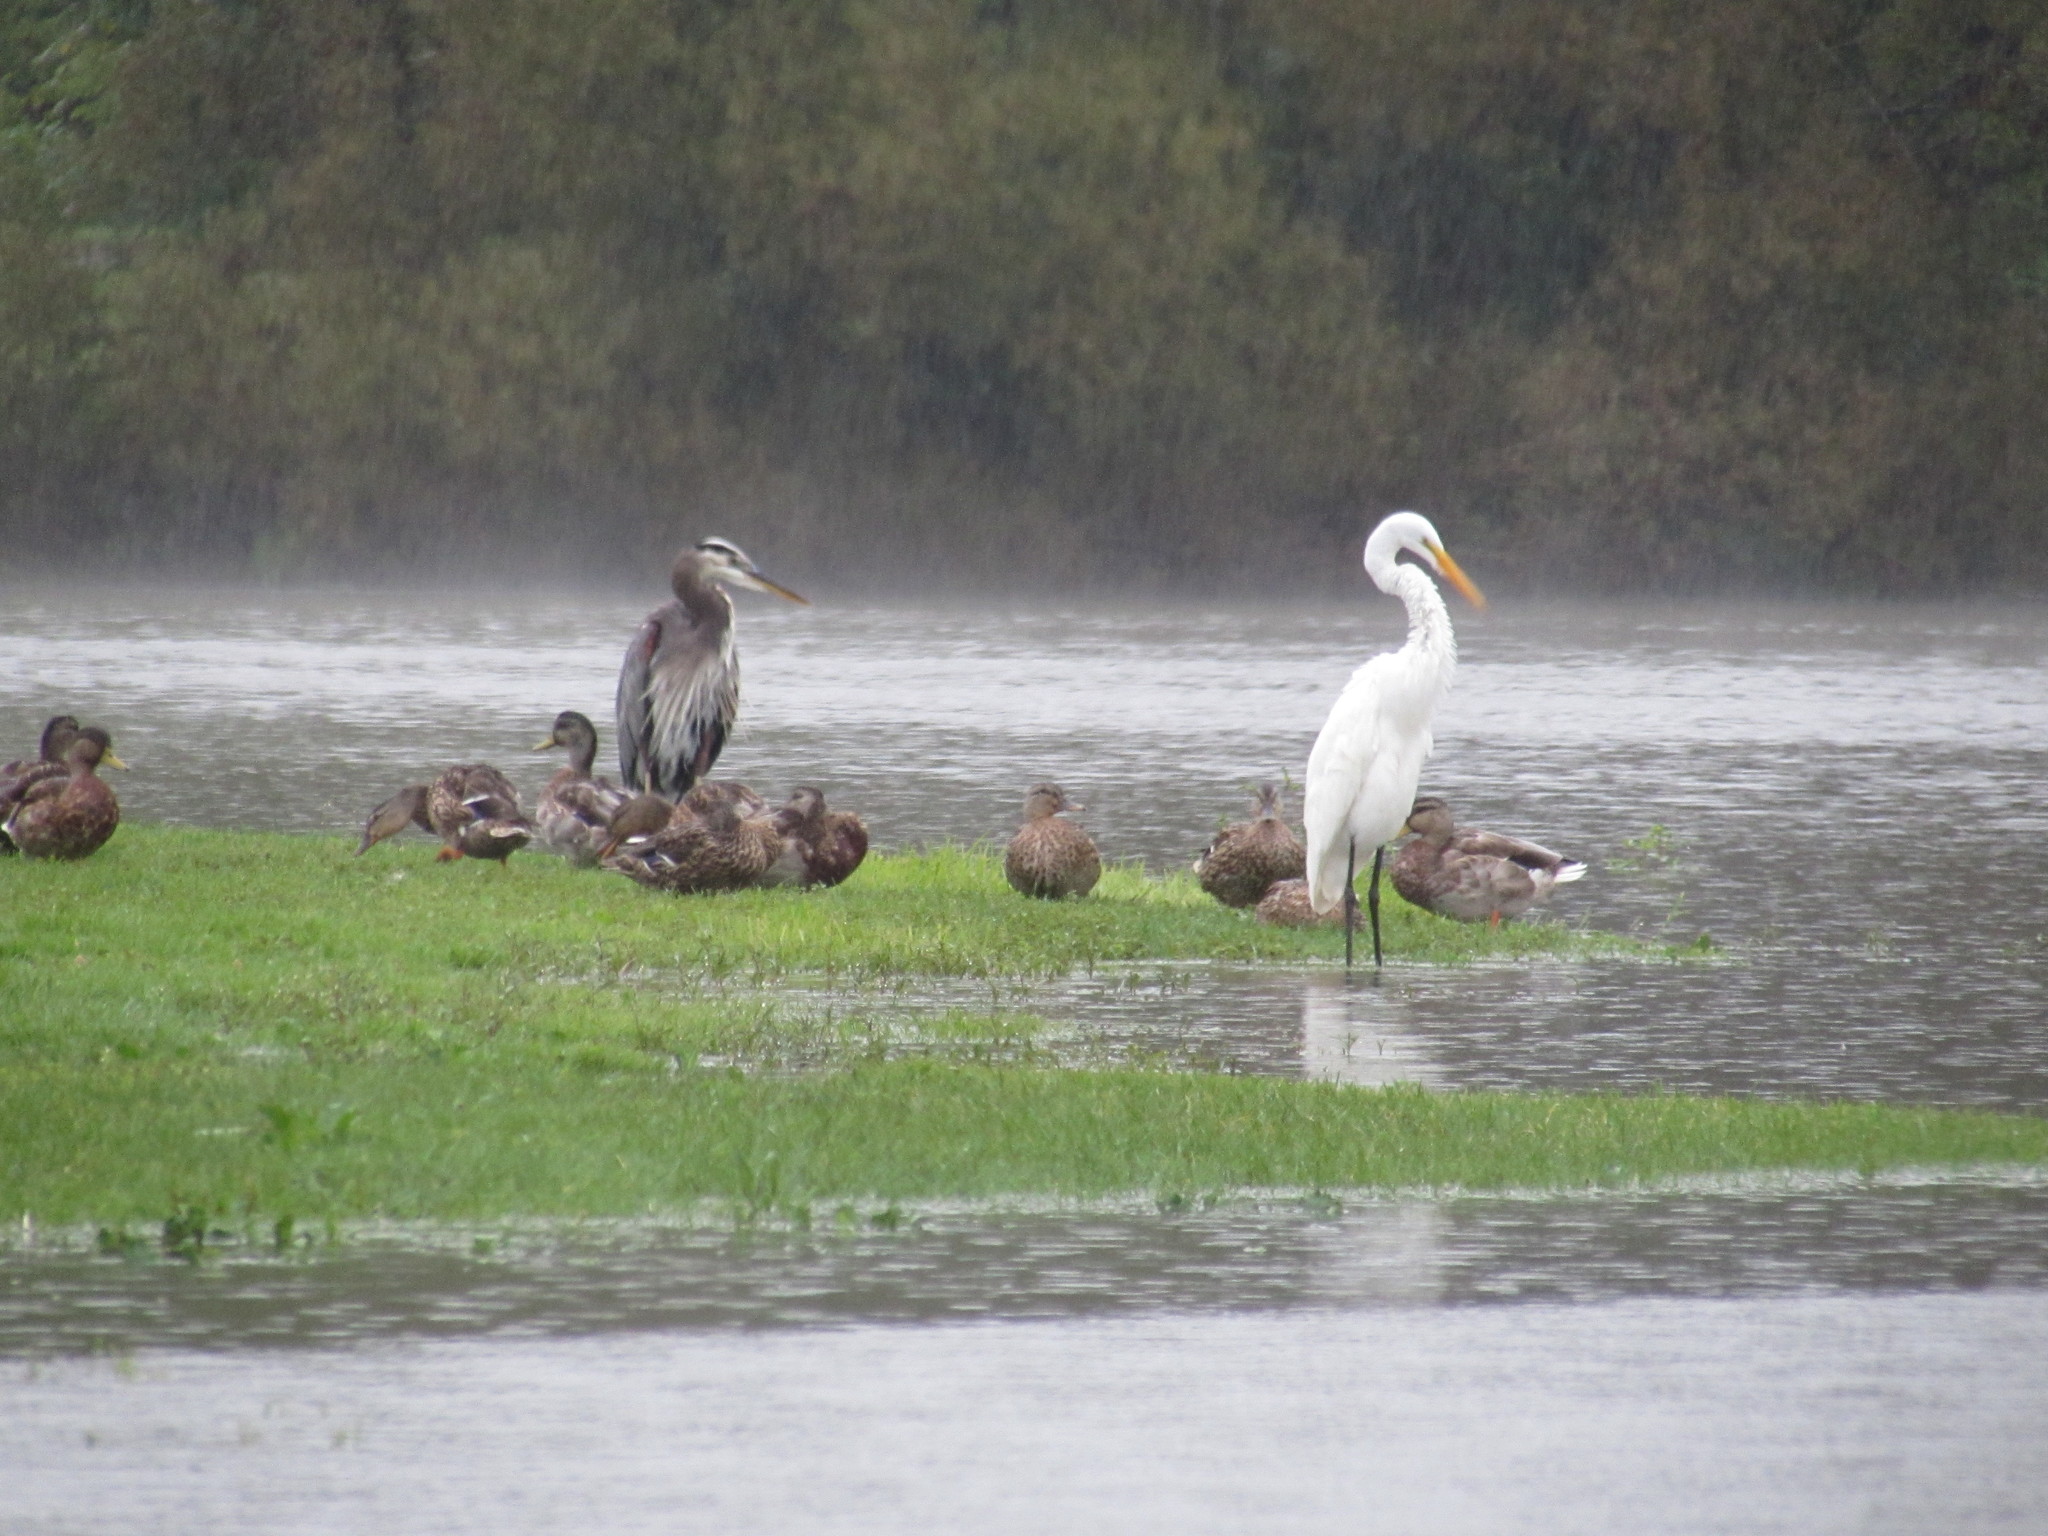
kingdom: Animalia
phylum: Chordata
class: Aves
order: Pelecaniformes
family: Ardeidae
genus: Ardea
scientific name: Ardea herodias
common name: Great blue heron
